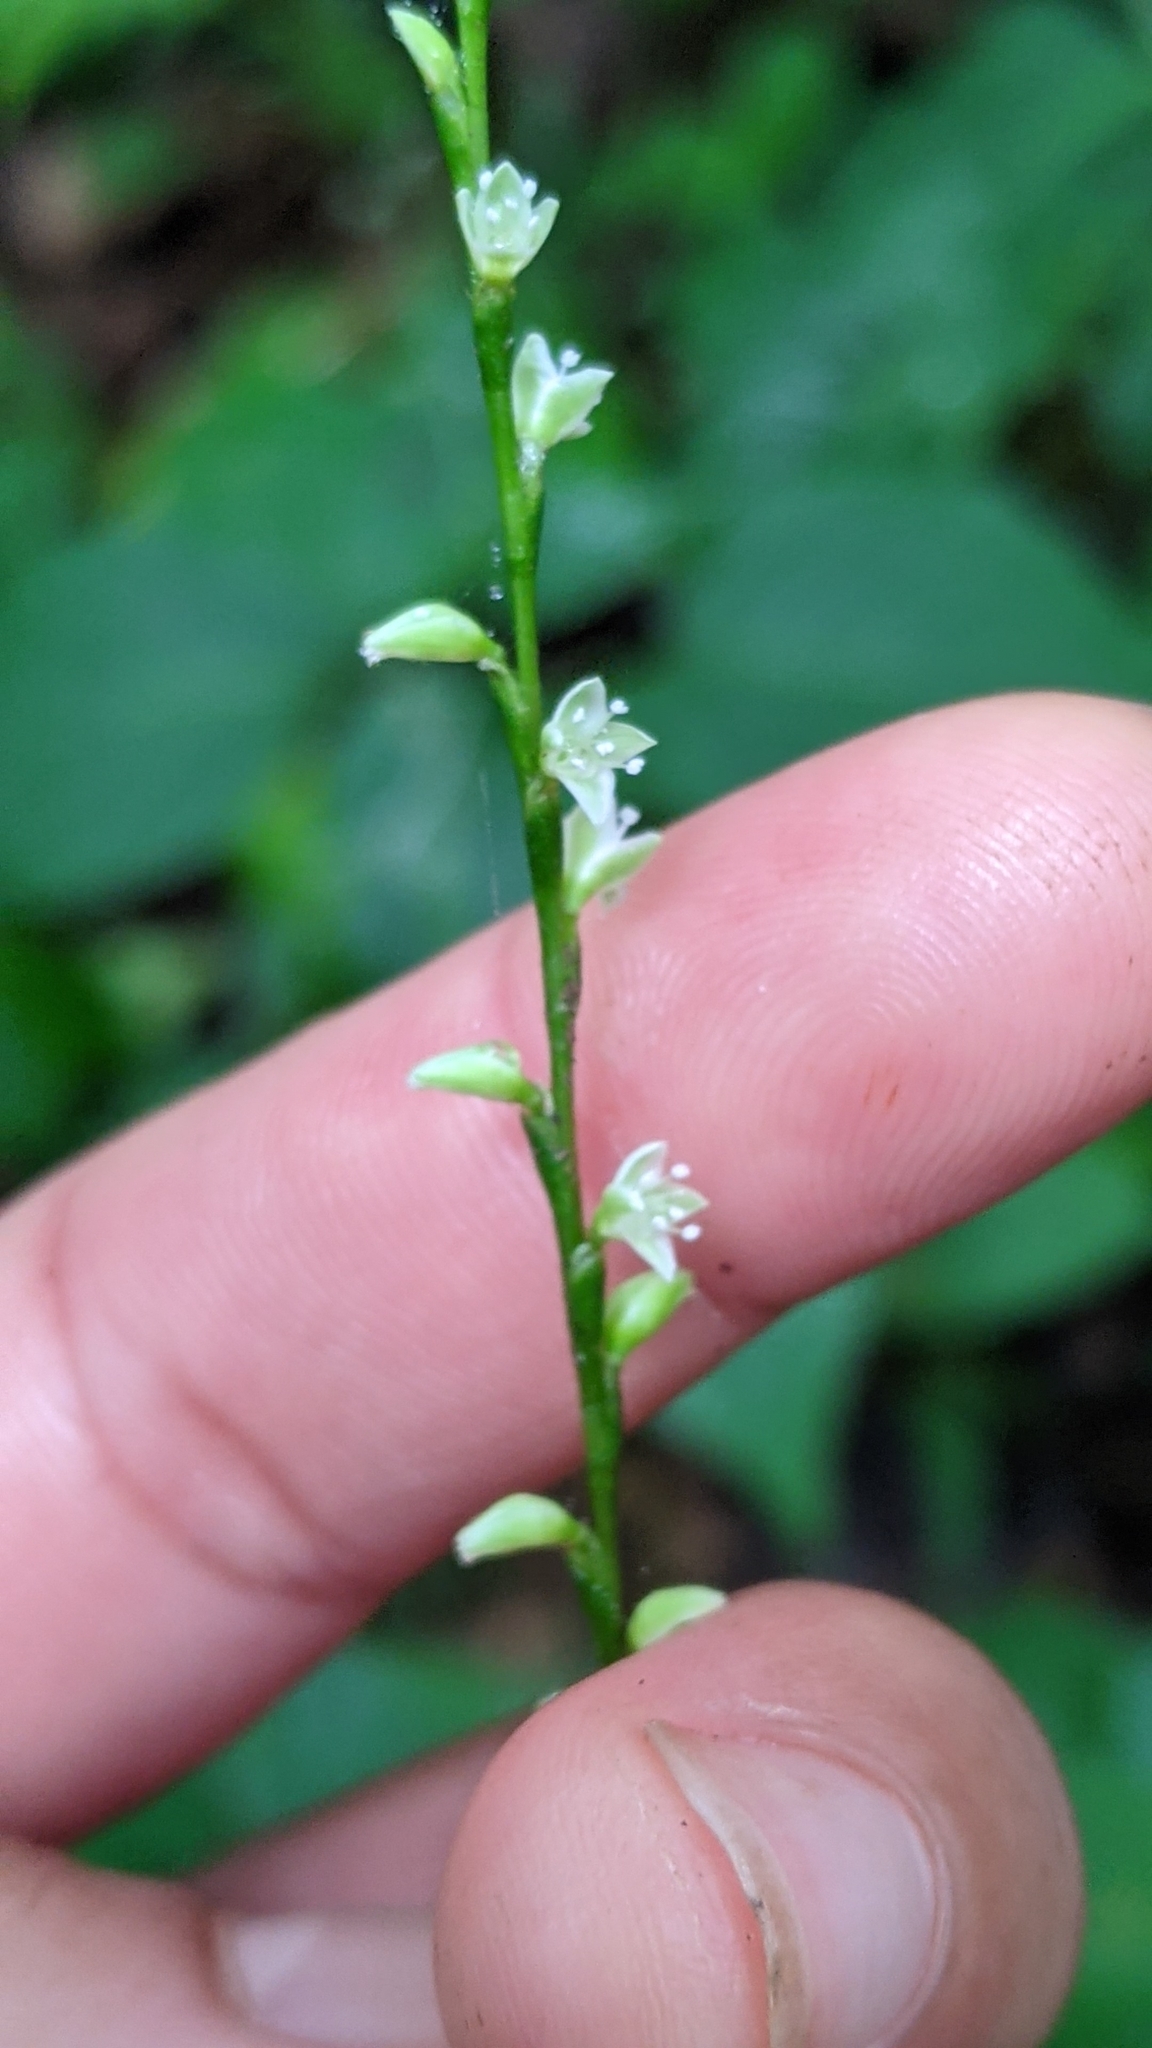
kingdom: Plantae
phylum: Tracheophyta
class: Magnoliopsida
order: Caryophyllales
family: Polygonaceae
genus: Persicaria
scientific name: Persicaria virginiana
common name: Jumpseed
